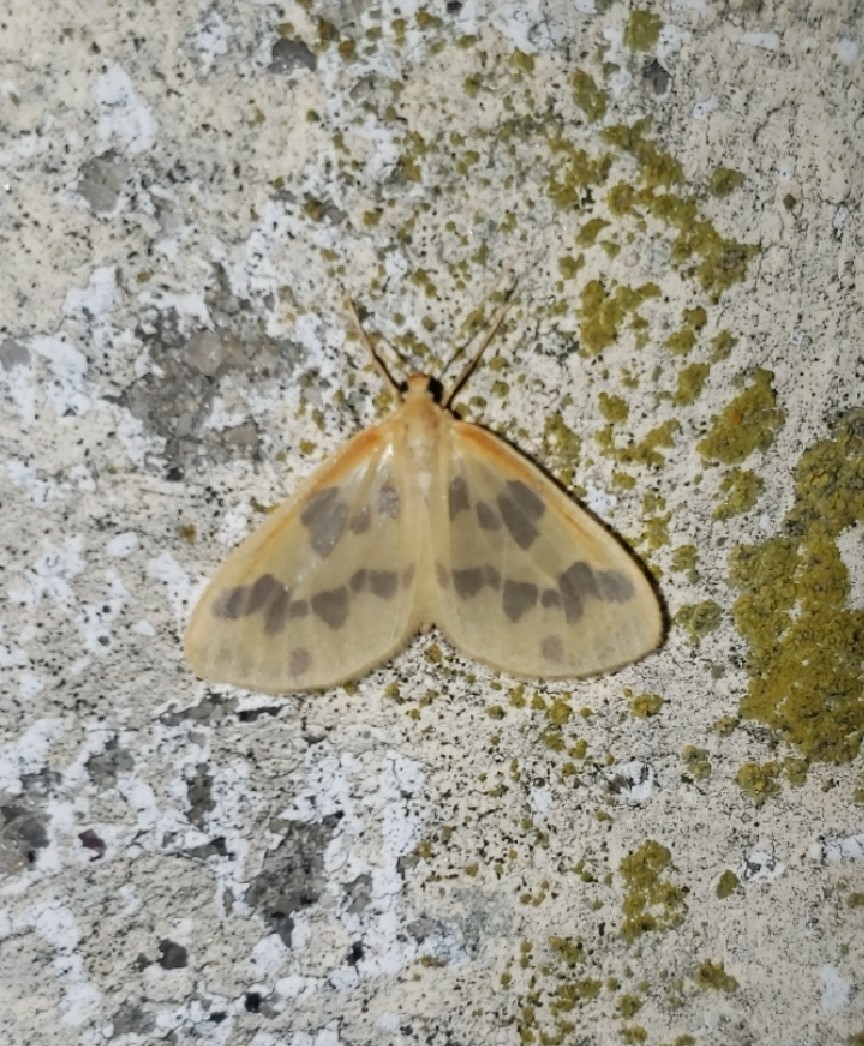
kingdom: Animalia
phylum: Arthropoda
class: Insecta
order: Lepidoptera
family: Geometridae
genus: Eubaphe
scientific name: Eubaphe mendica
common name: Beggar
